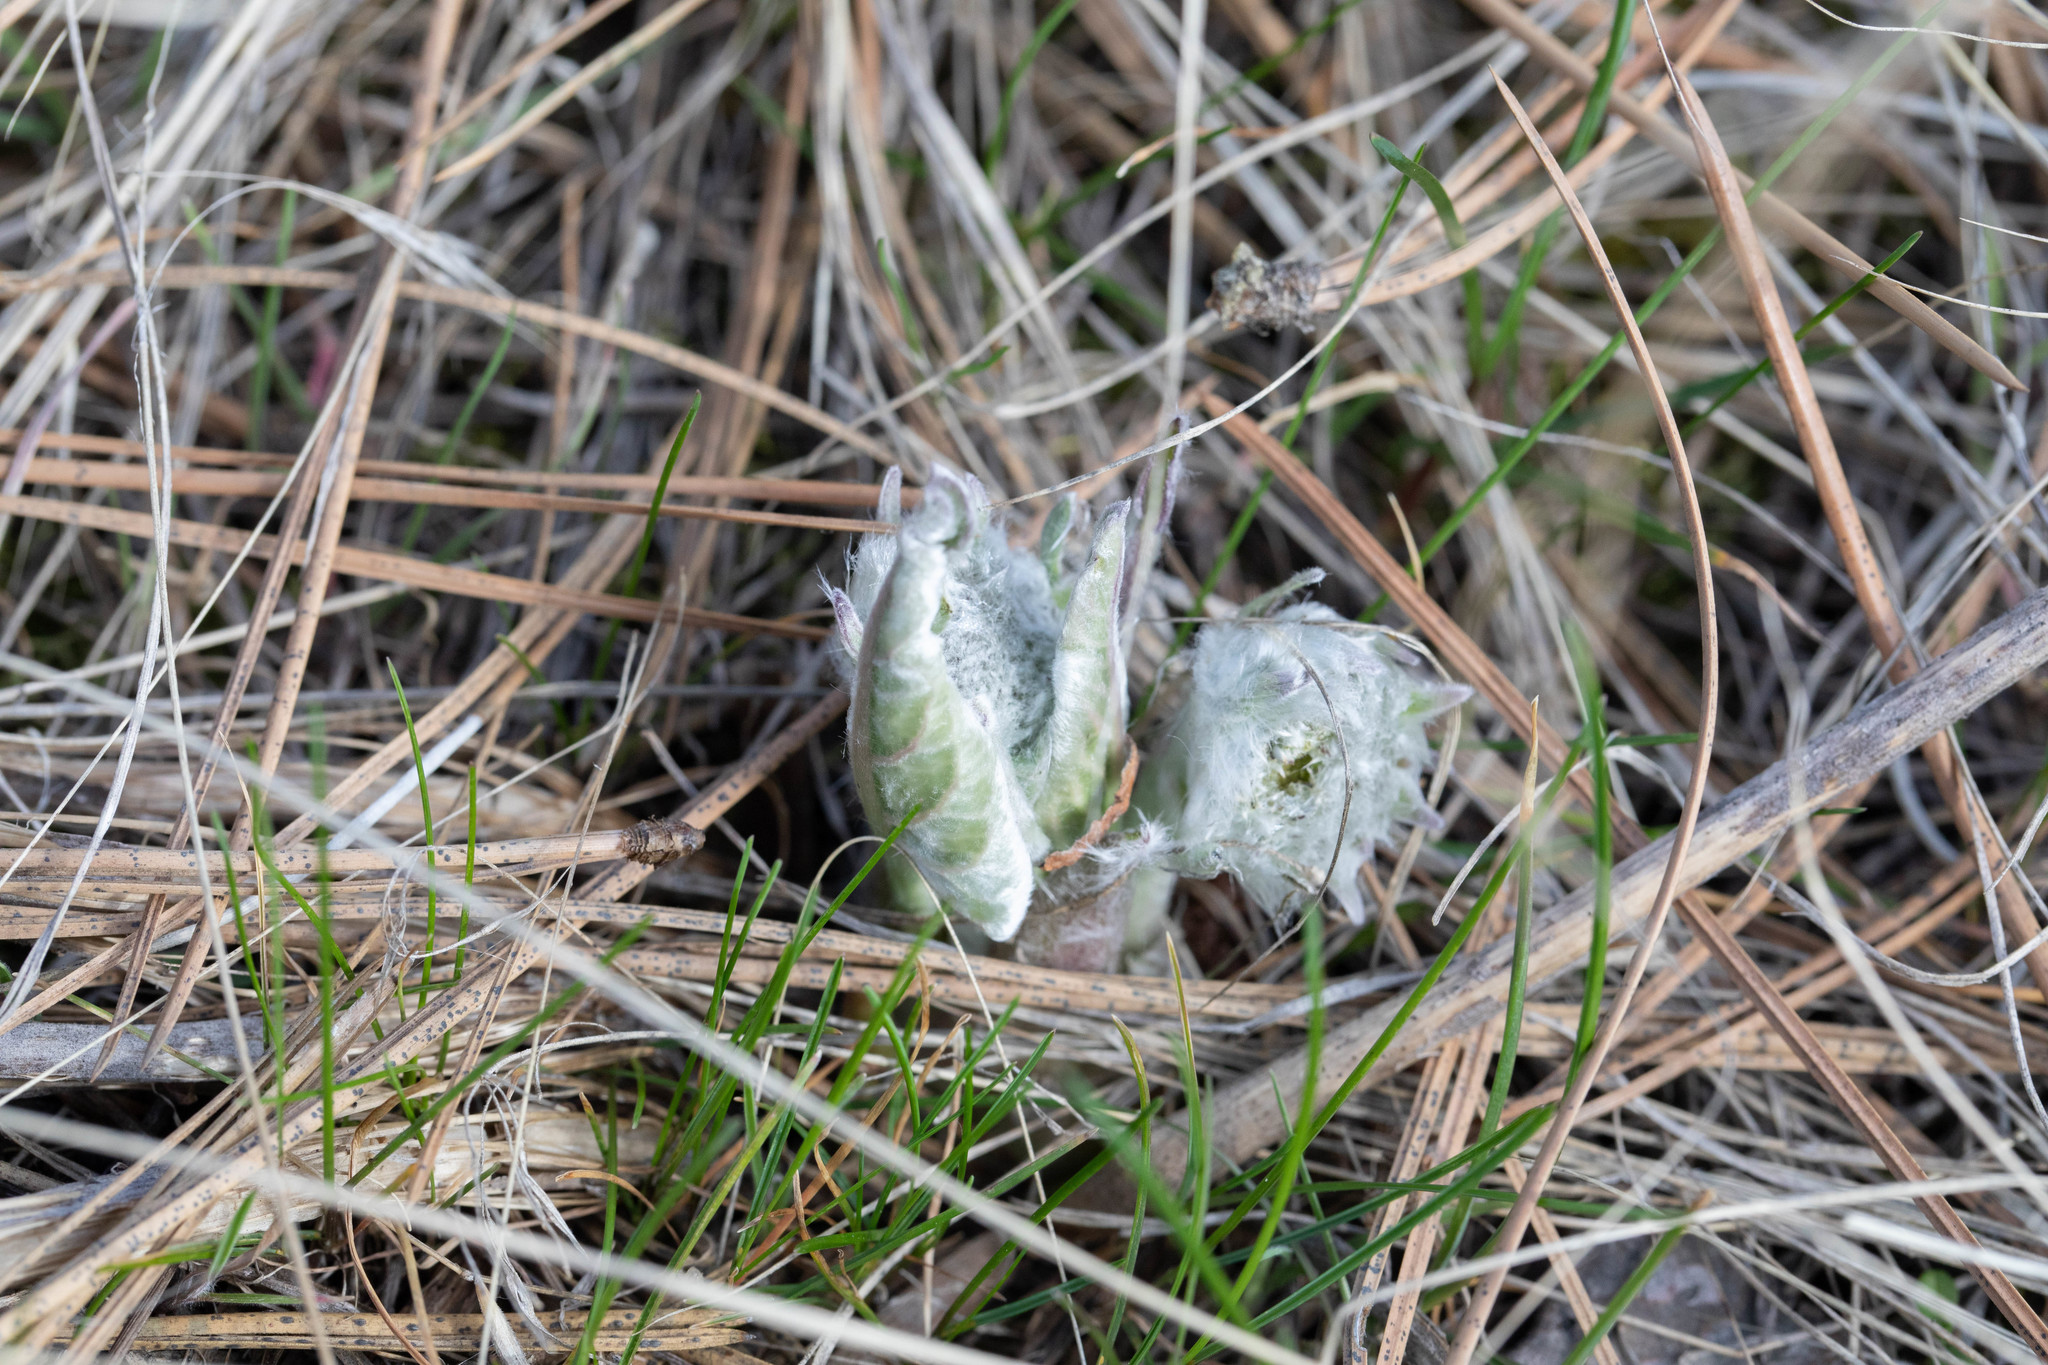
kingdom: Plantae
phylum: Tracheophyta
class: Magnoliopsida
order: Asterales
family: Asteraceae
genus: Wyethia
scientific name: Wyethia sagittata
